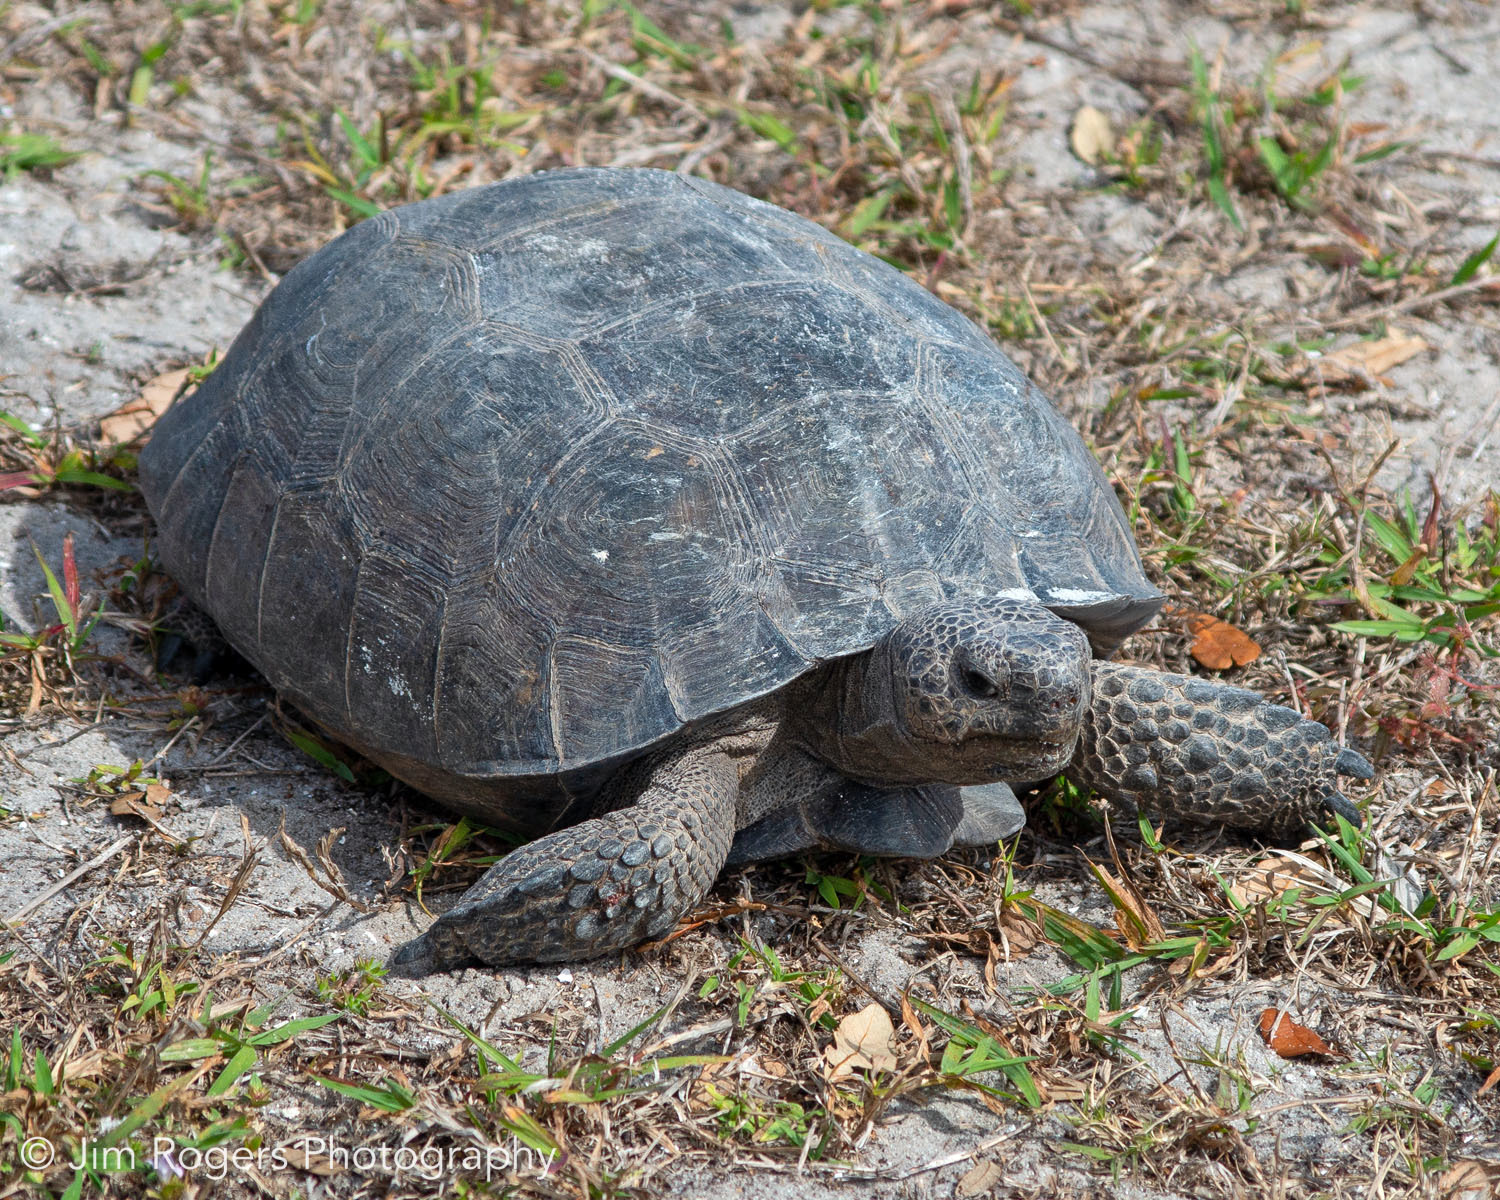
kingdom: Animalia
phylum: Chordata
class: Testudines
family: Testudinidae
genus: Gopherus
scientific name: Gopherus polyphemus
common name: Florida gopher tortoise
